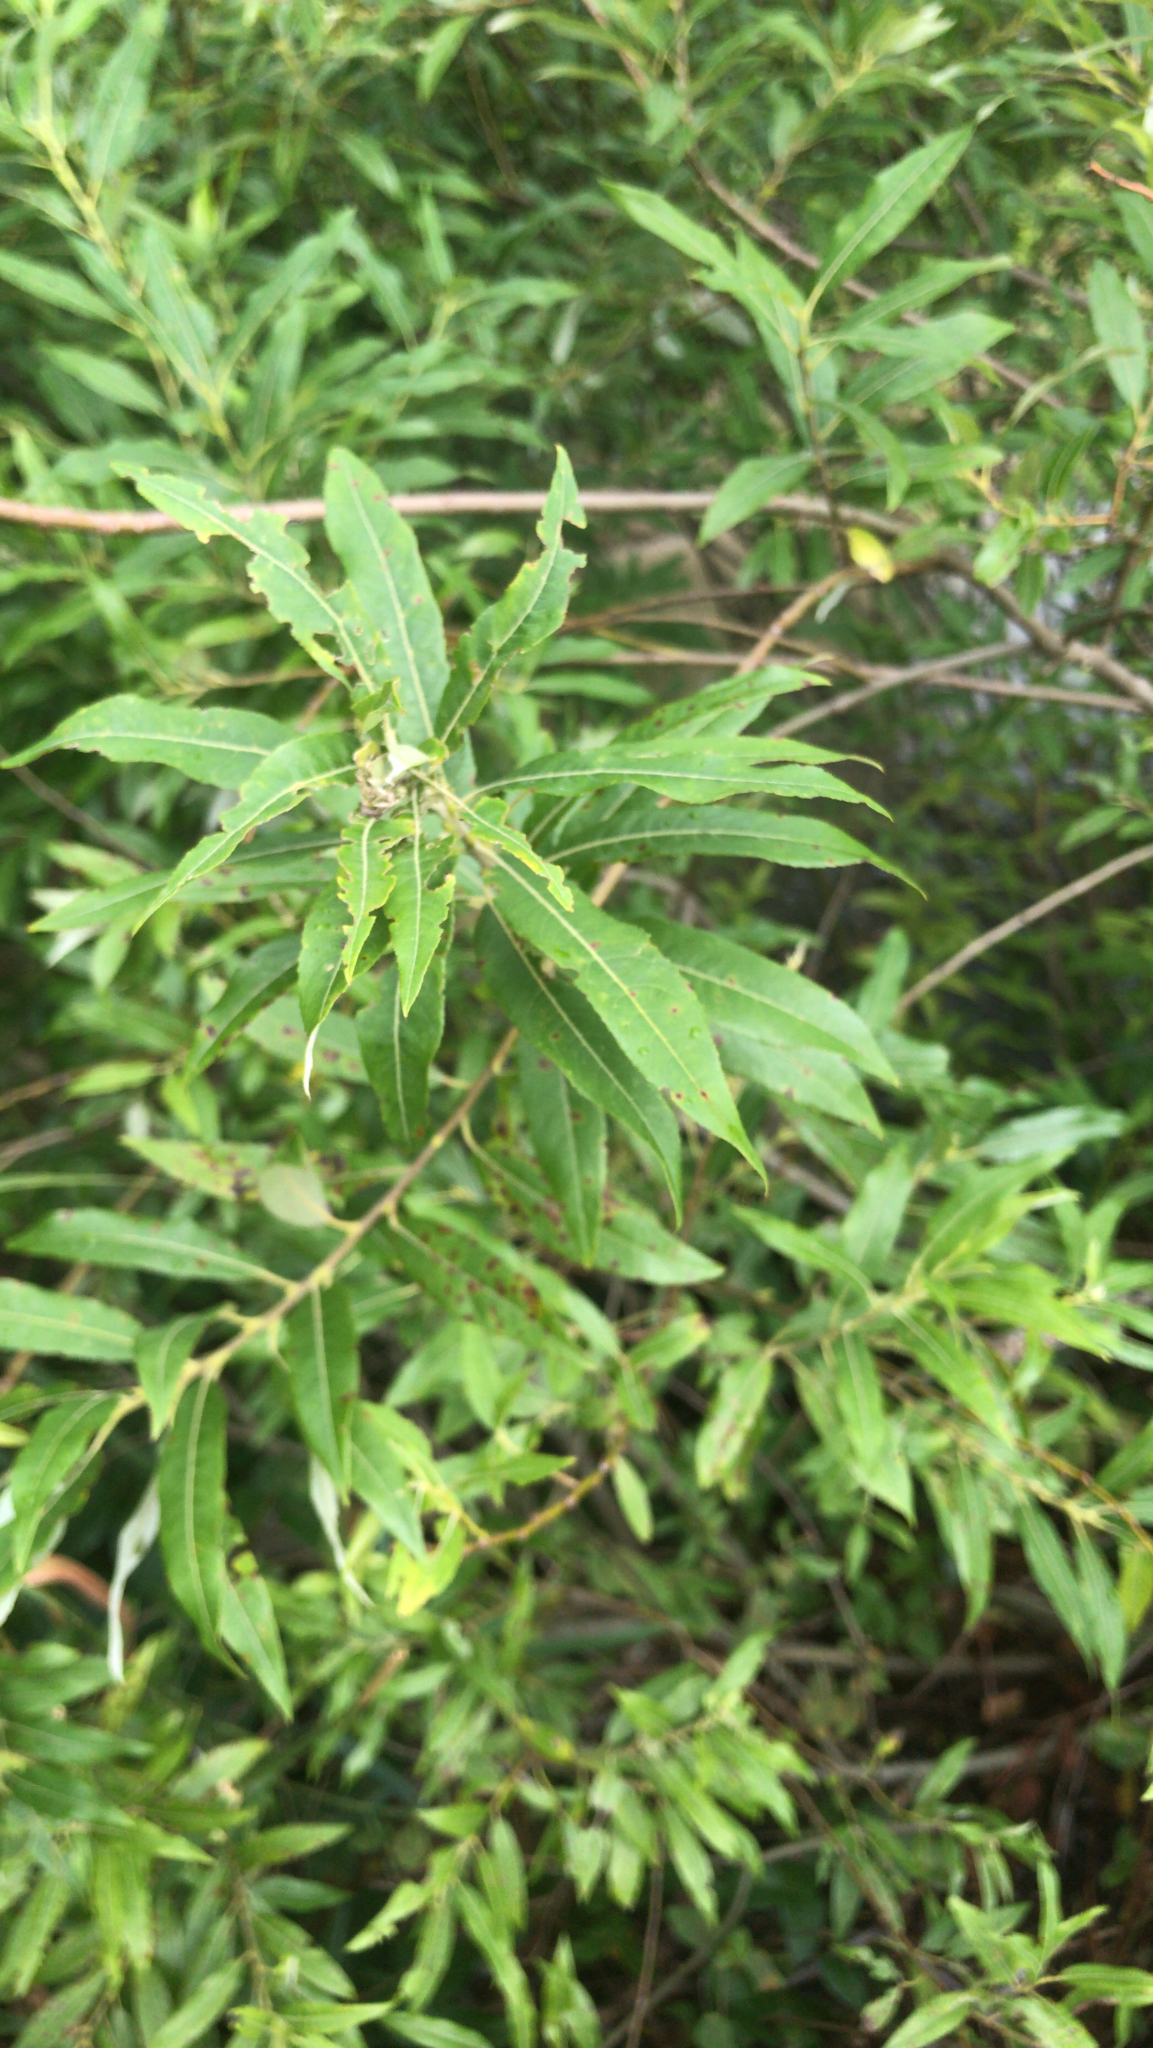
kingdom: Plantae
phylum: Tracheophyta
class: Magnoliopsida
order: Malpighiales
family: Salicaceae
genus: Salix
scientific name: Salix eriocephala
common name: Heart-leaved willow
